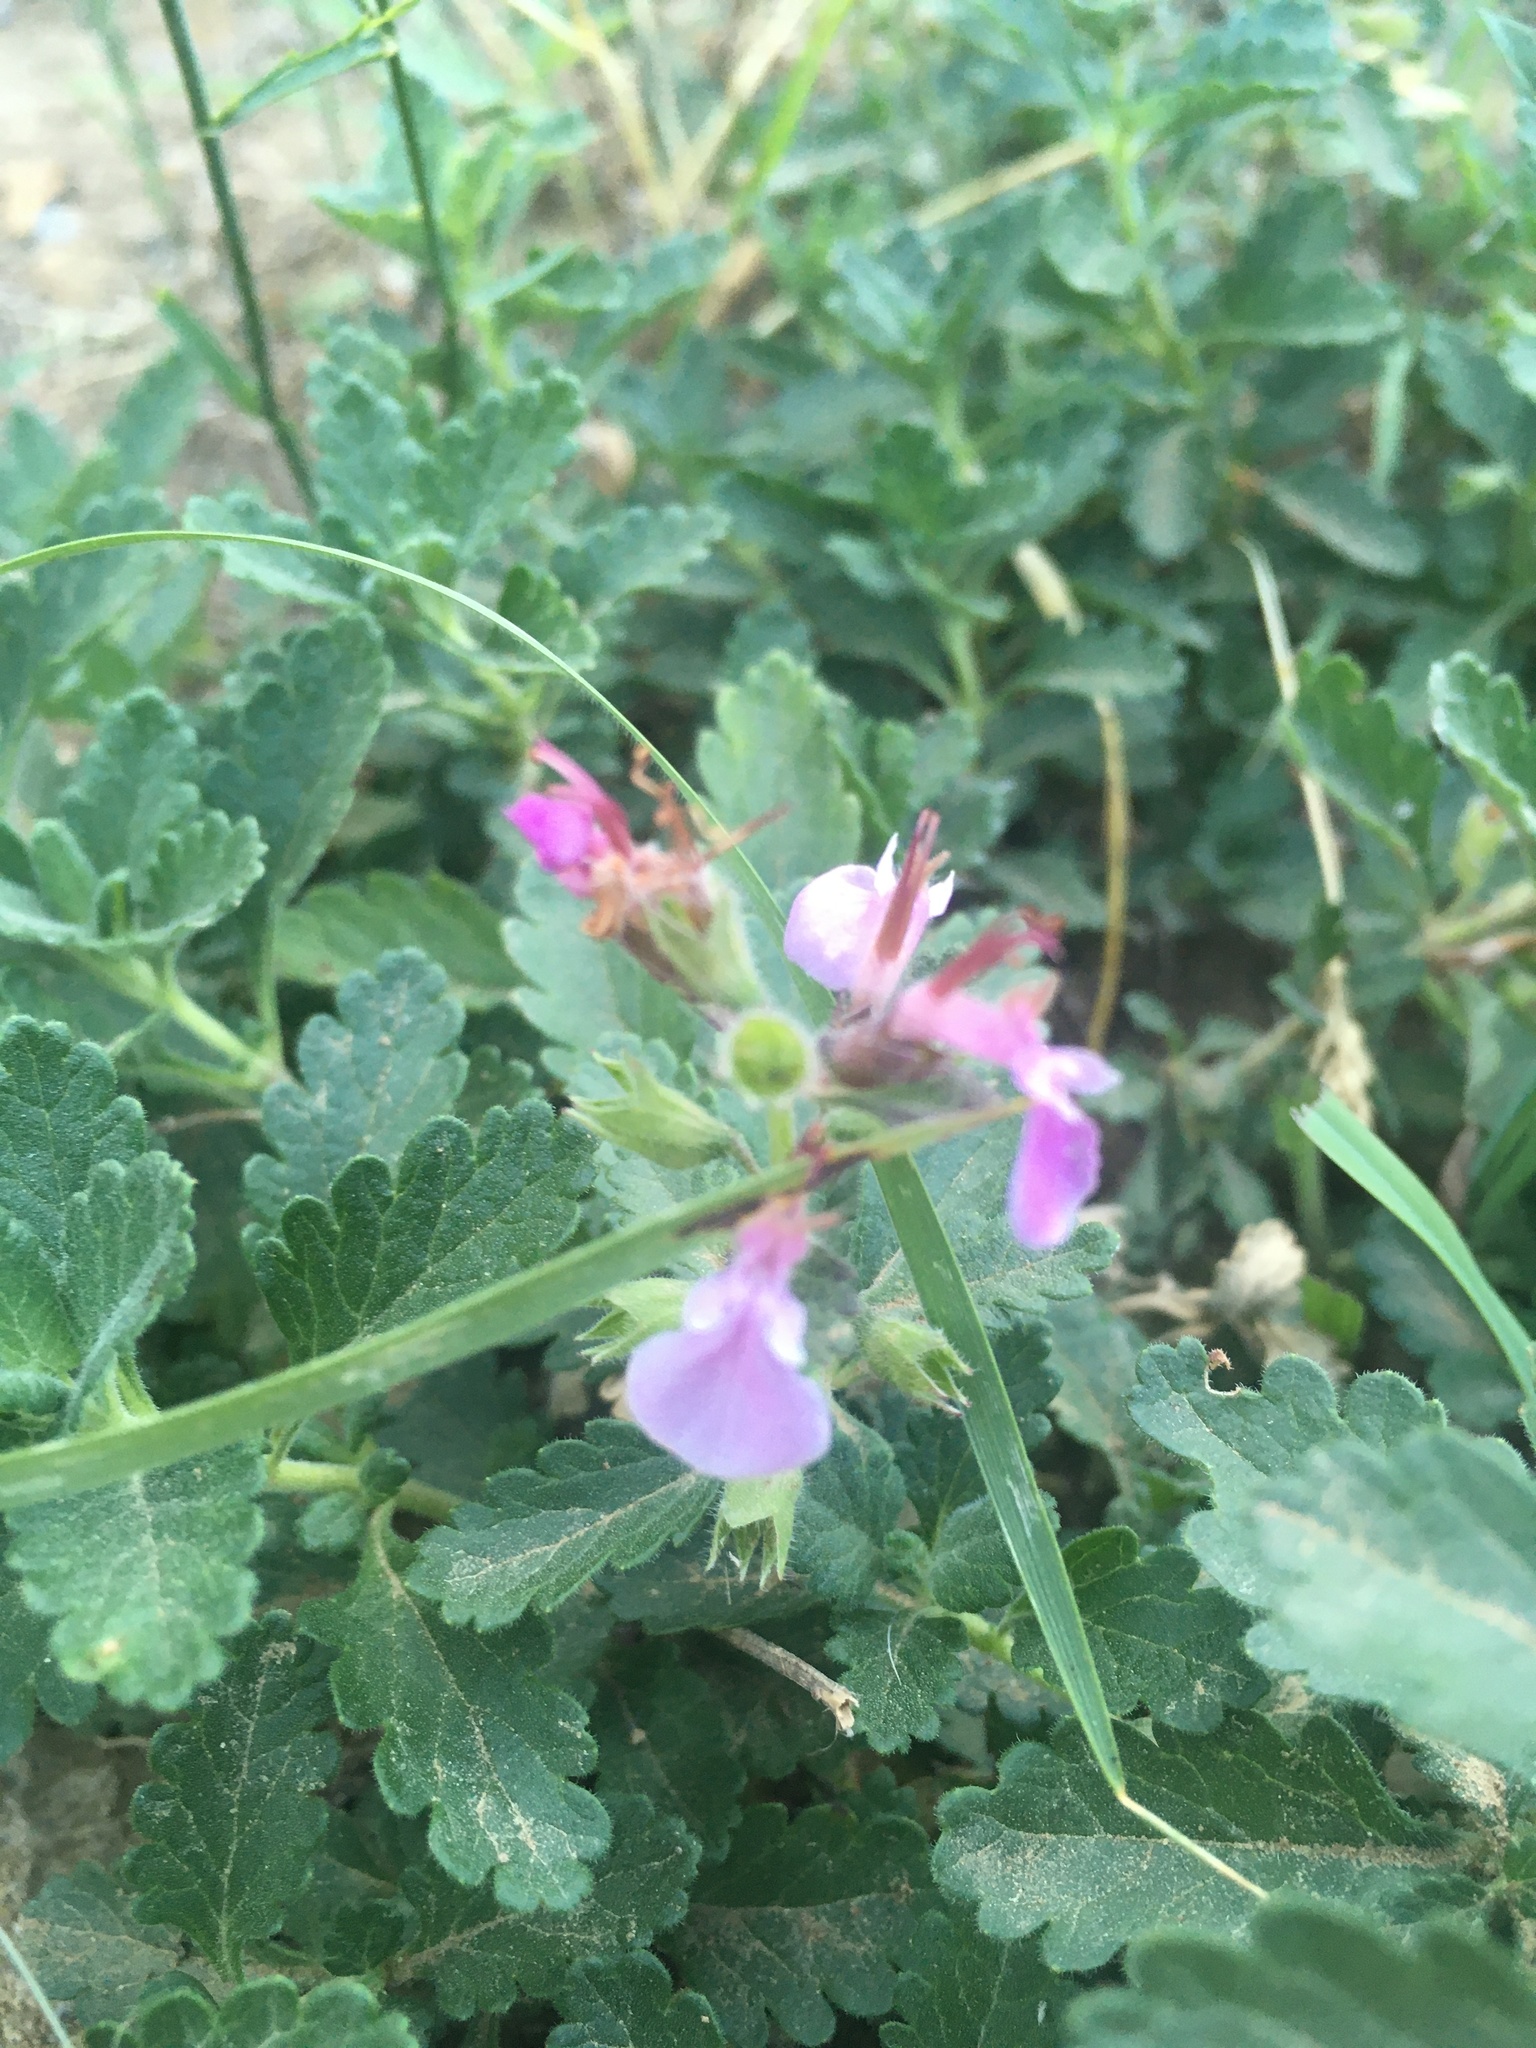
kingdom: Plantae
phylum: Tracheophyta
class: Magnoliopsida
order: Lamiales
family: Lamiaceae
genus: Teucrium
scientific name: Teucrium chamaedrys
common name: Wall germander
